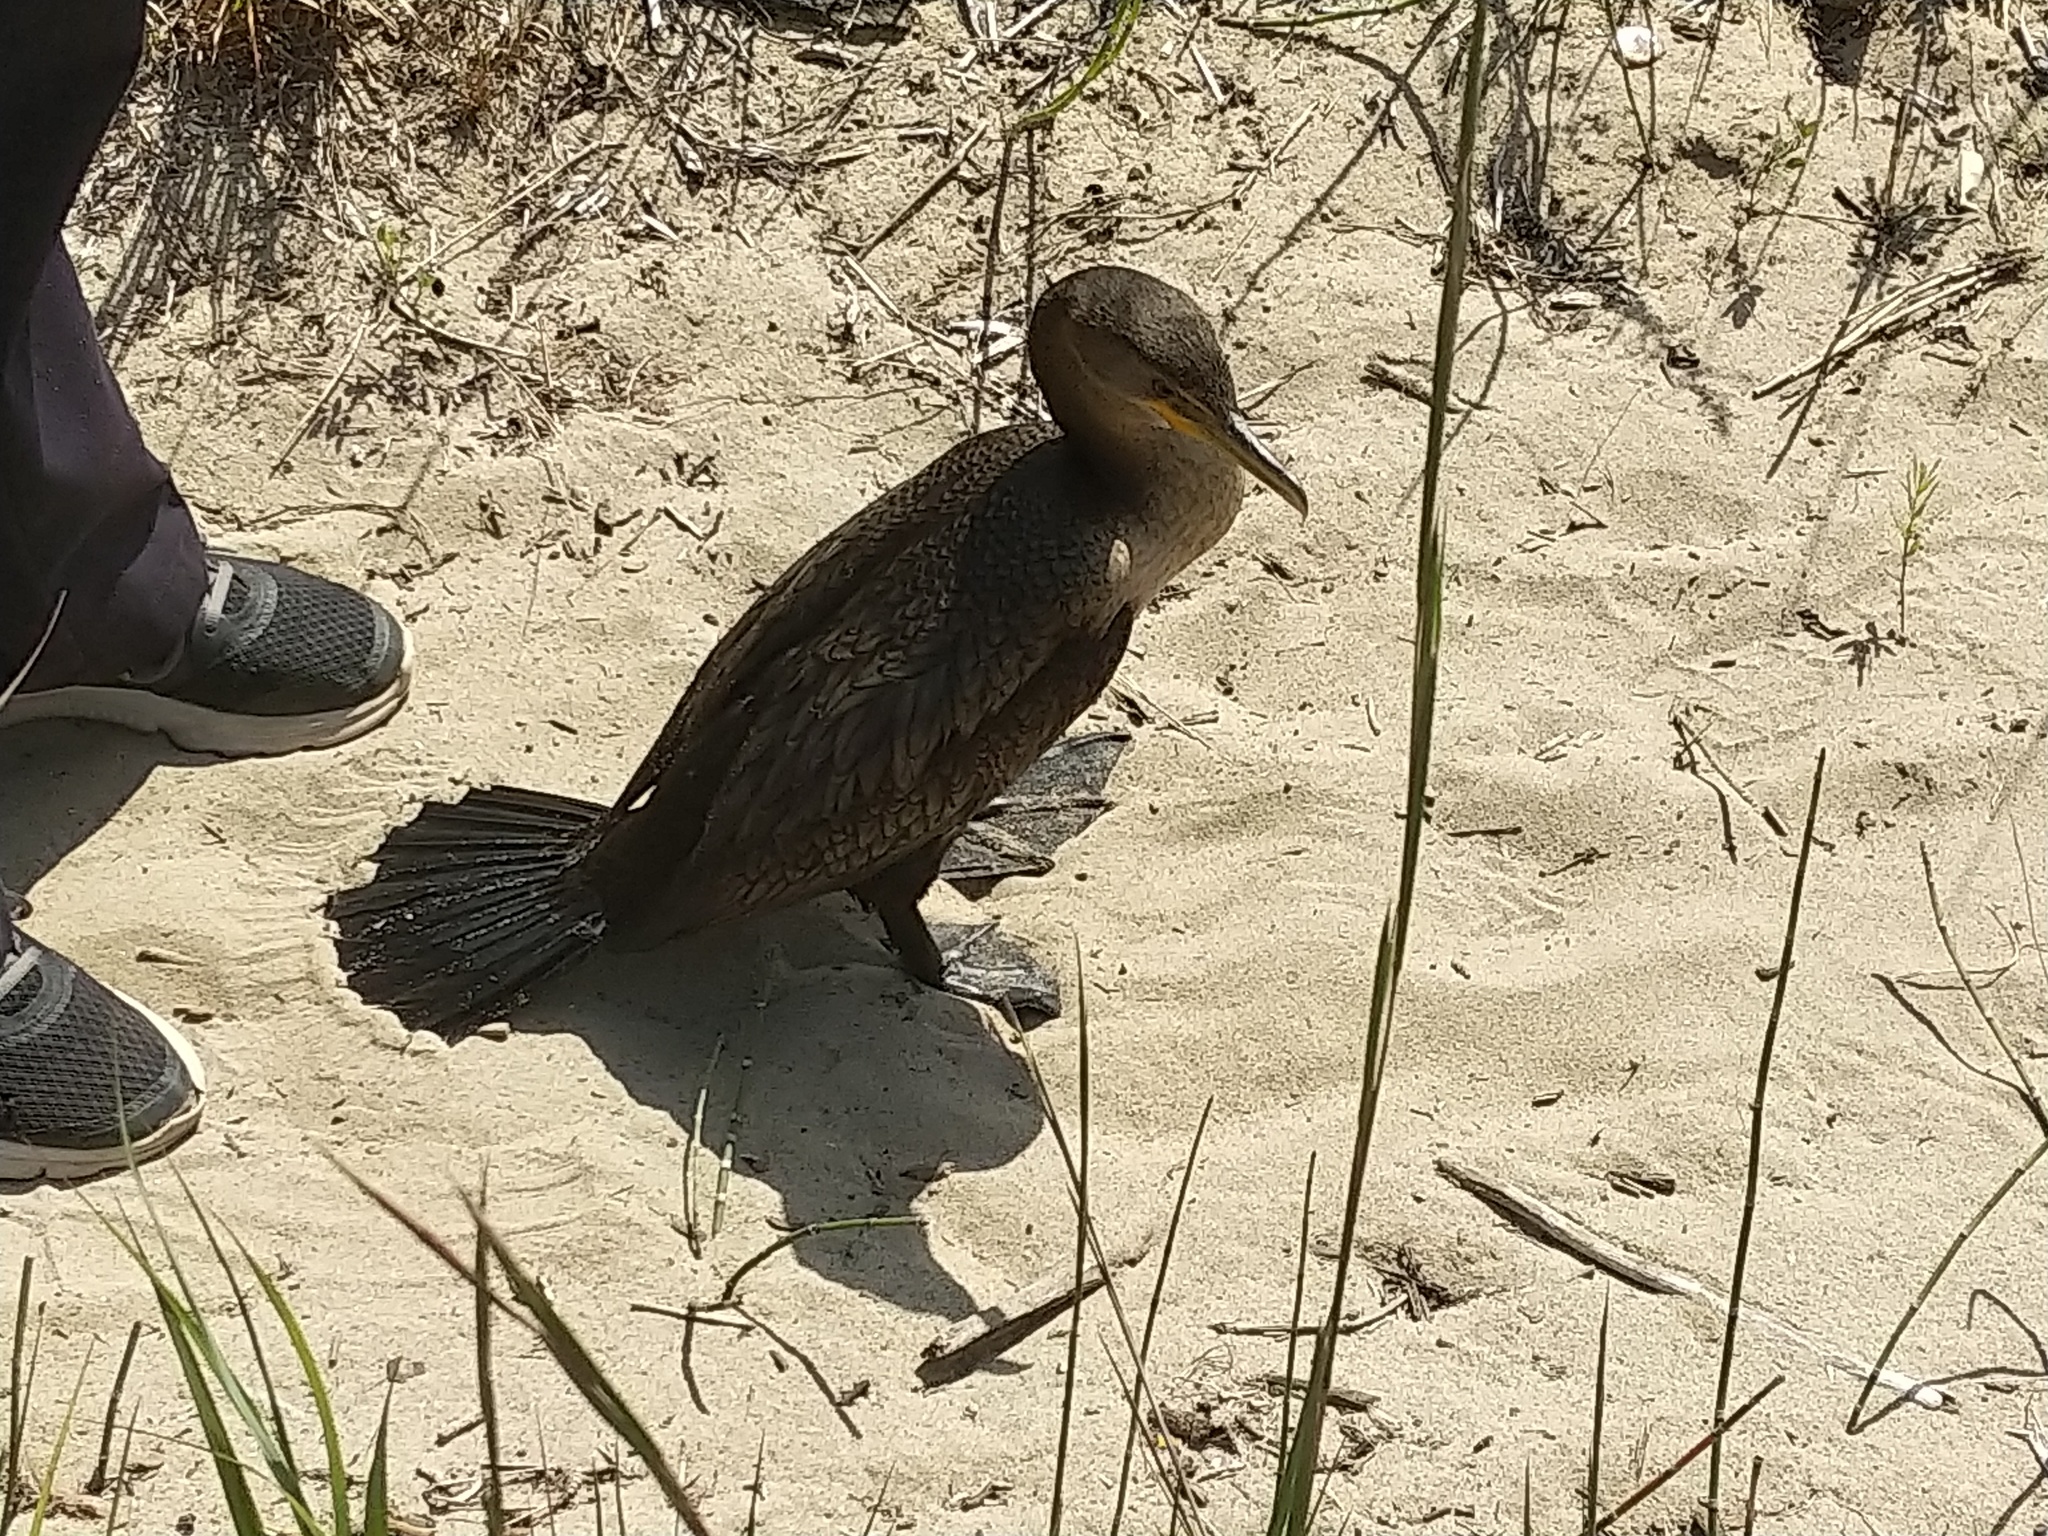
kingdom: Animalia
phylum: Chordata
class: Aves
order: Suliformes
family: Phalacrocoracidae
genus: Phalacrocorax
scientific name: Phalacrocorax auritus
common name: Double-crested cormorant
